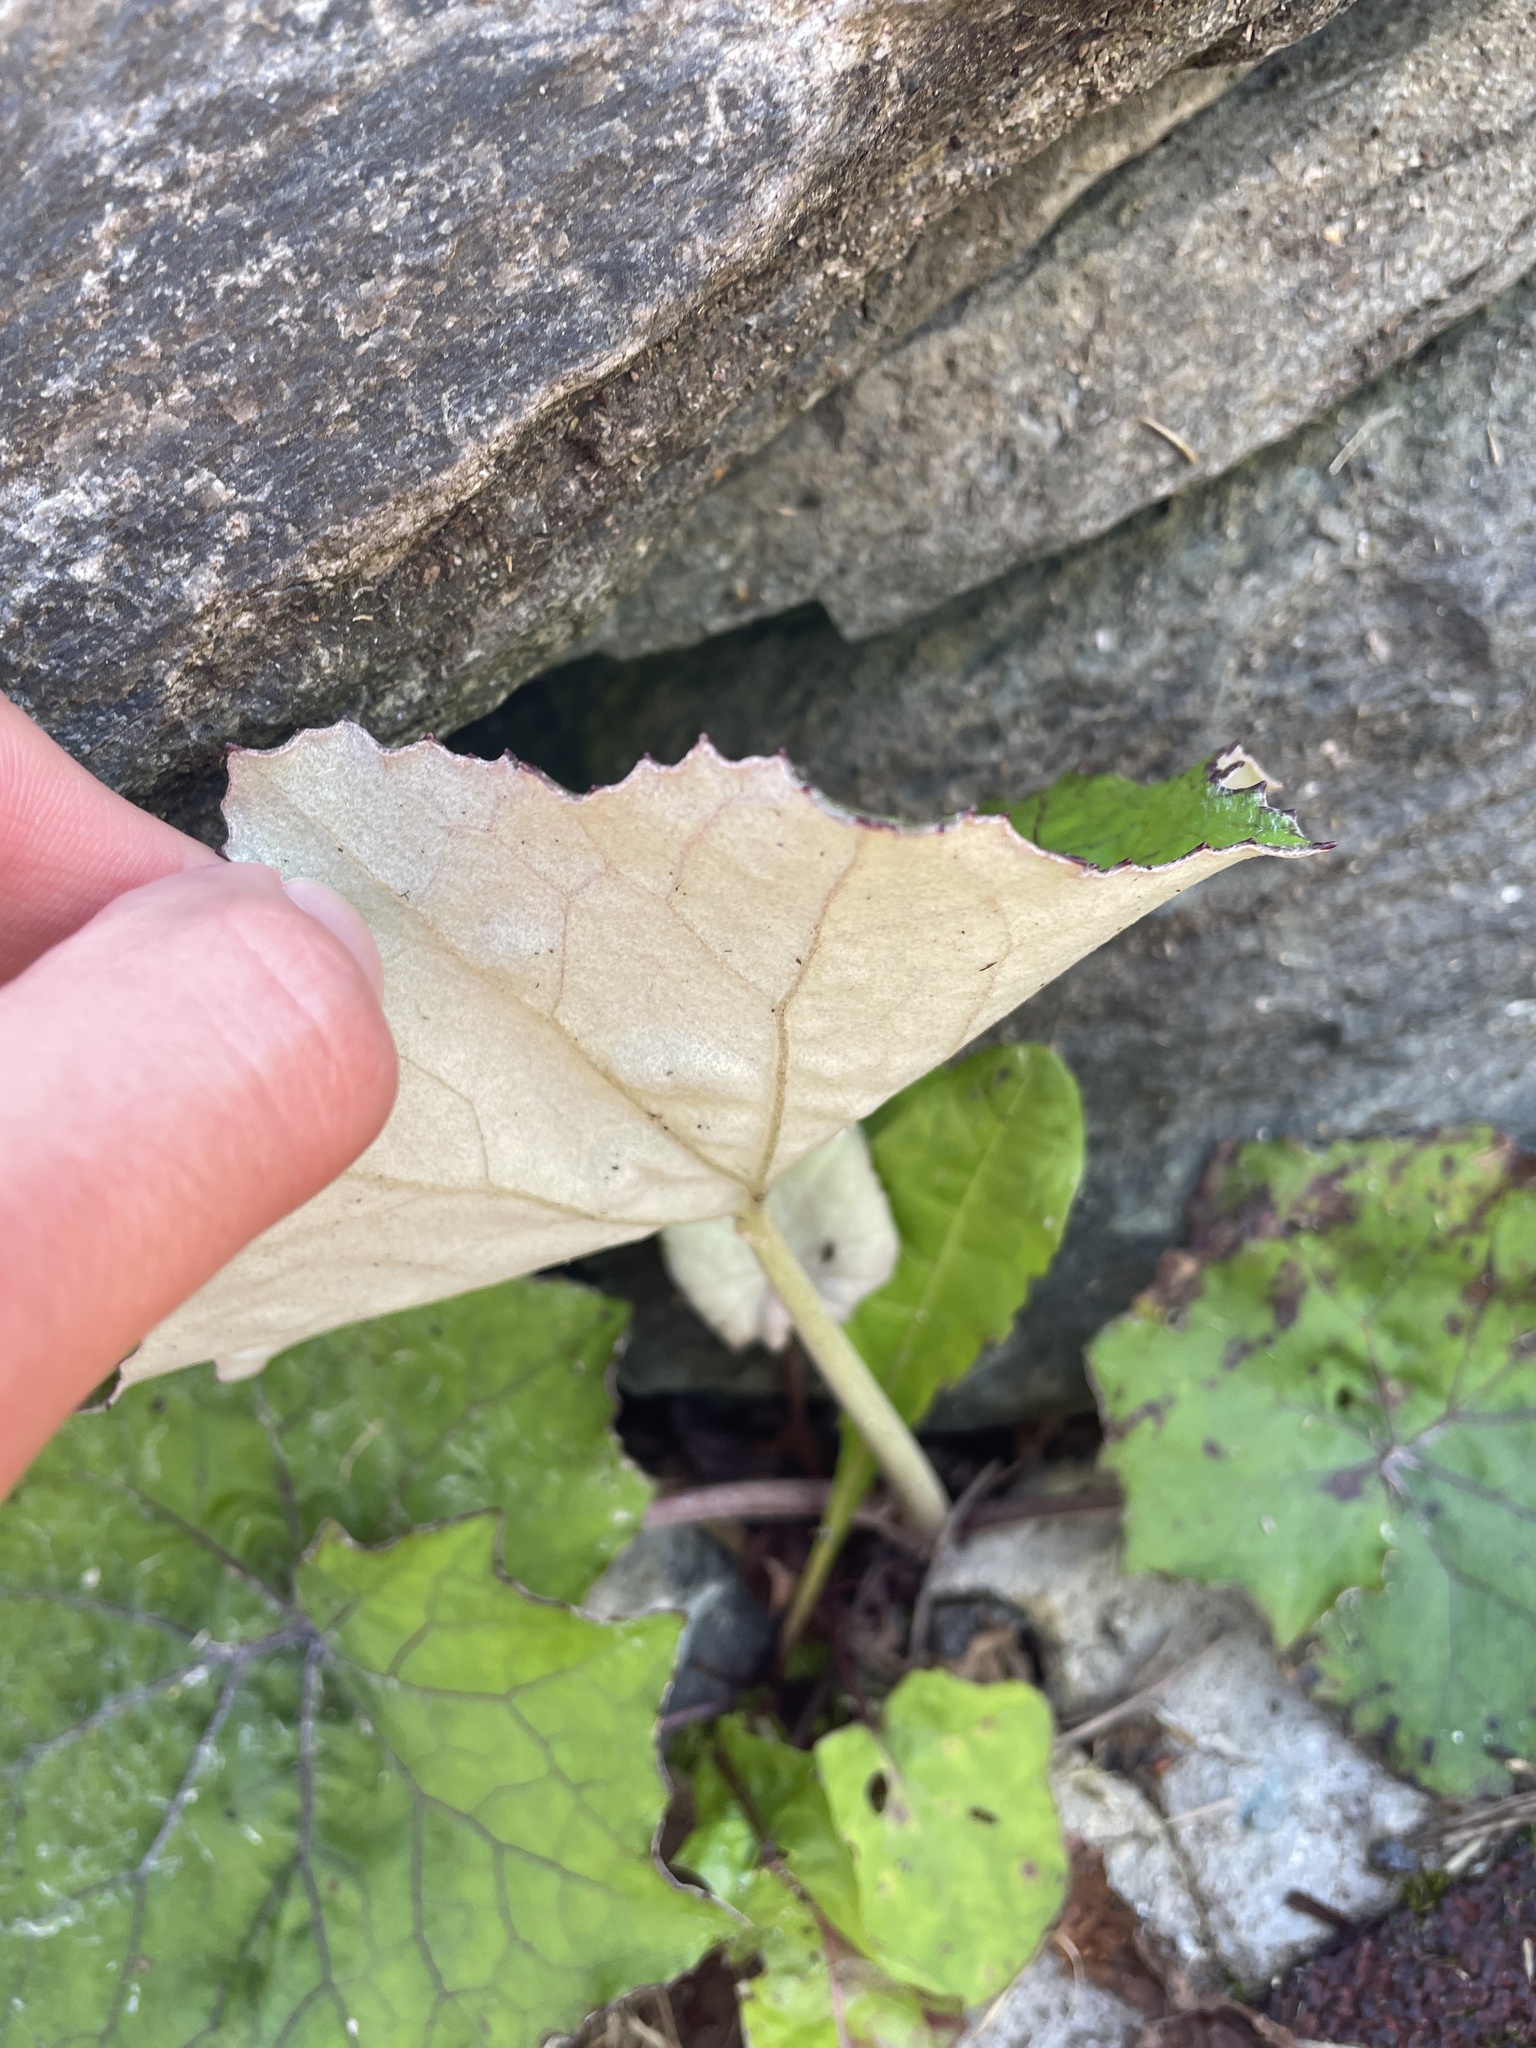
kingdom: Plantae
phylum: Tracheophyta
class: Magnoliopsida
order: Asterales
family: Asteraceae
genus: Tussilago
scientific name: Tussilago farfara
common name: Coltsfoot
